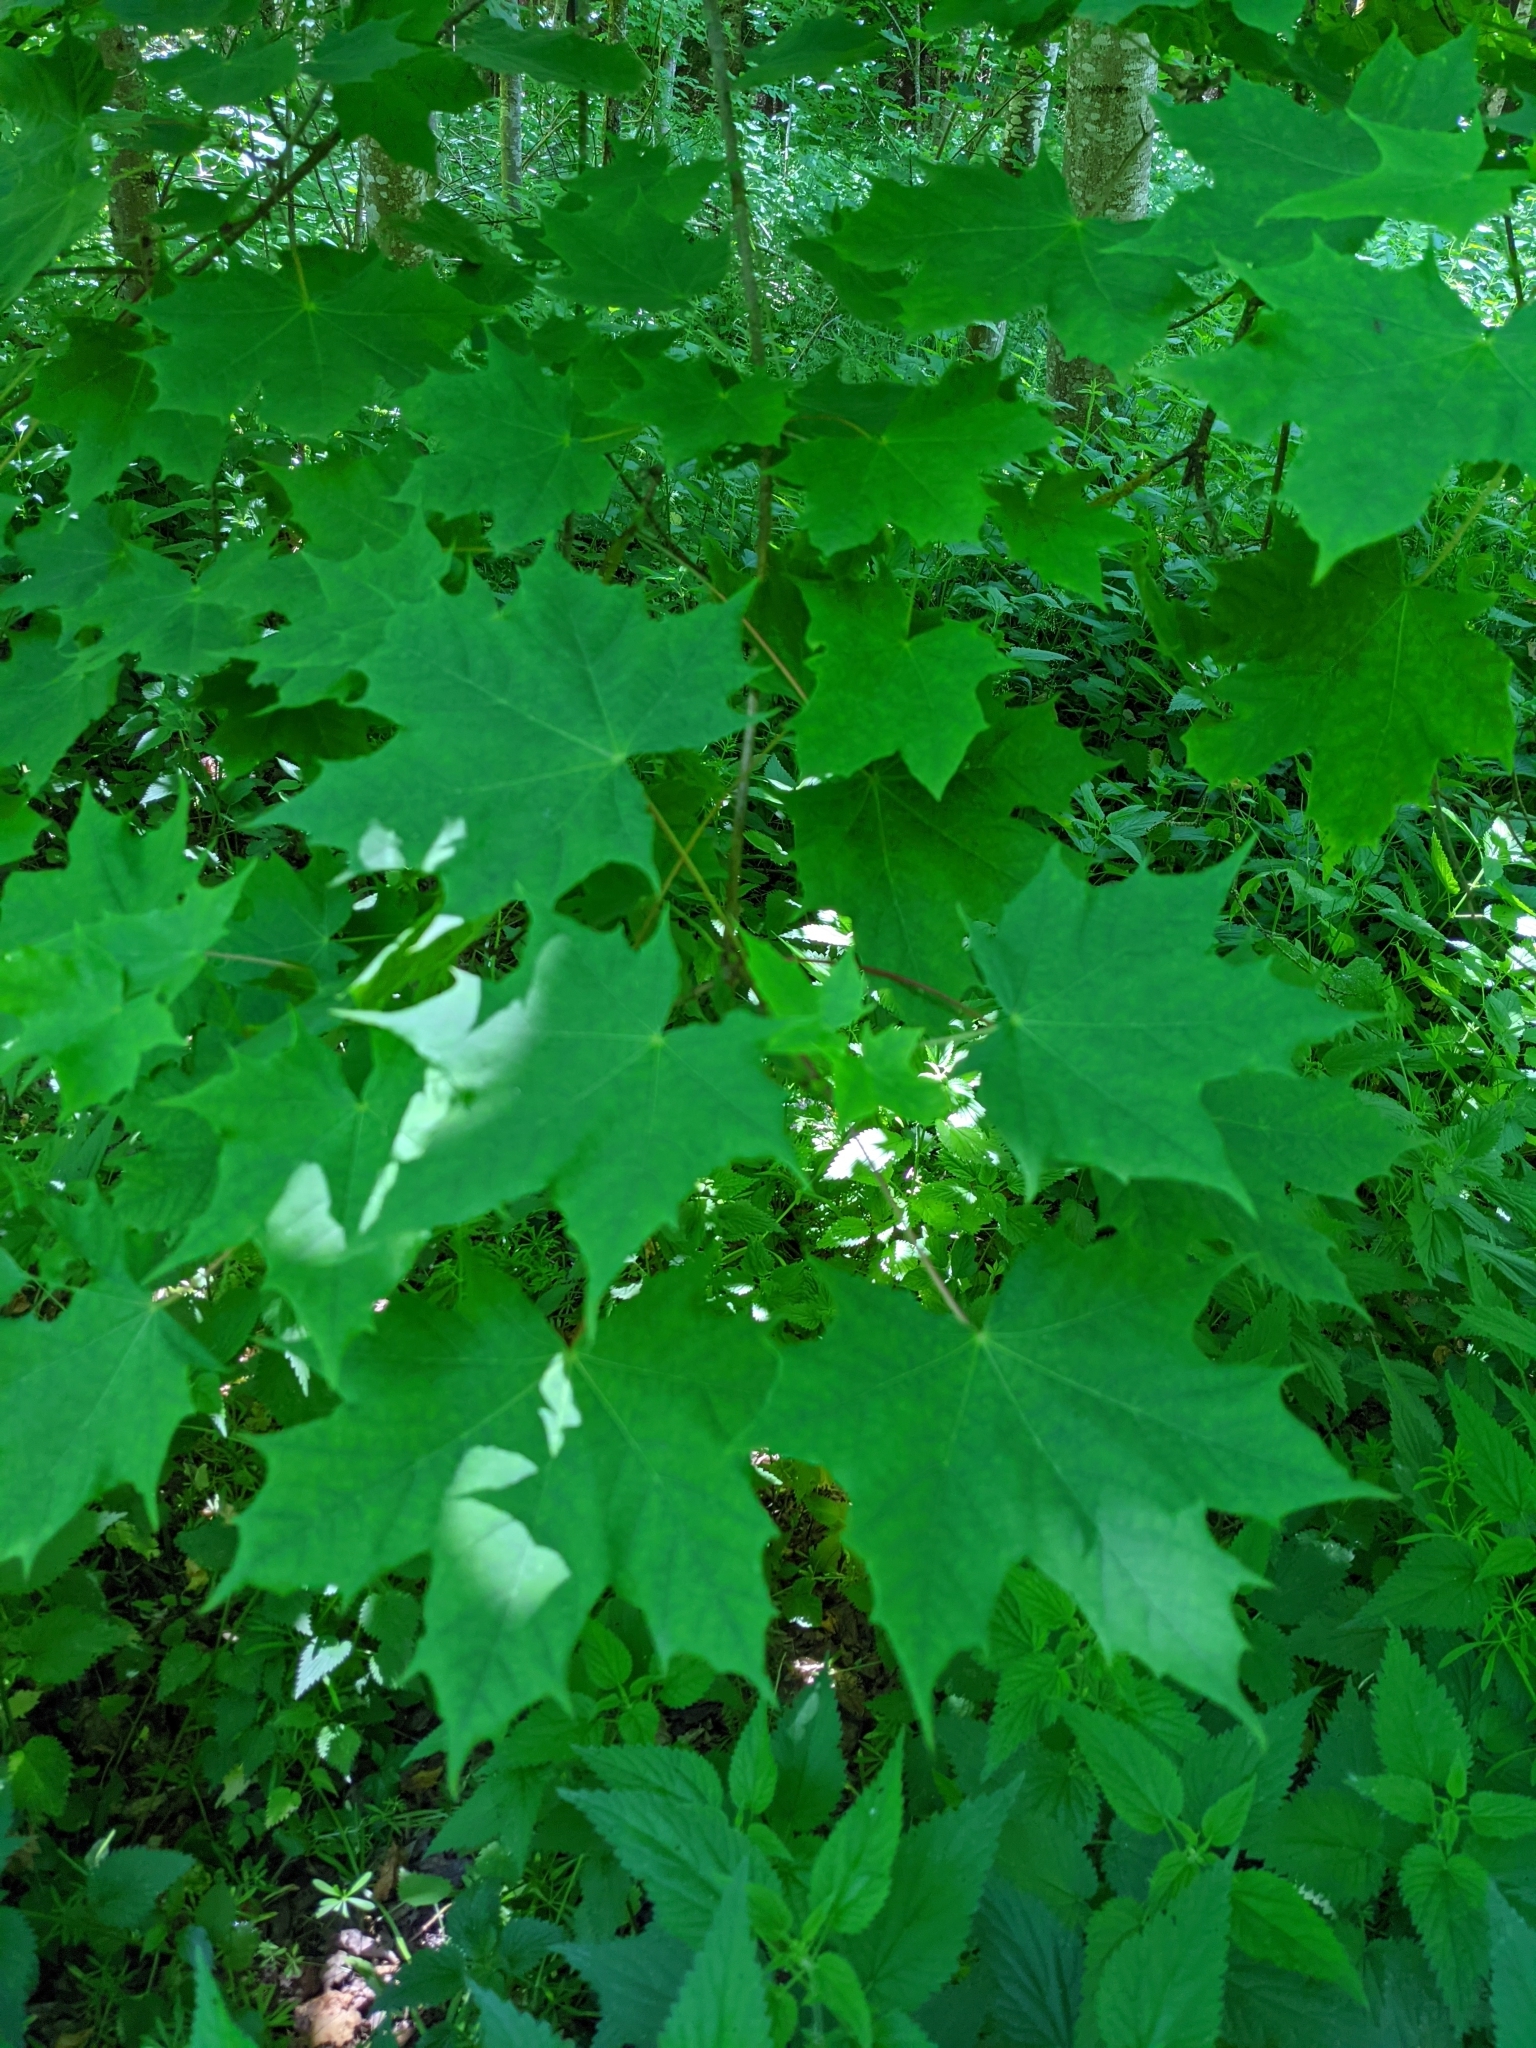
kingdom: Plantae
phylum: Tracheophyta
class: Magnoliopsida
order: Sapindales
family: Sapindaceae
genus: Acer
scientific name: Acer platanoides
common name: Norway maple
